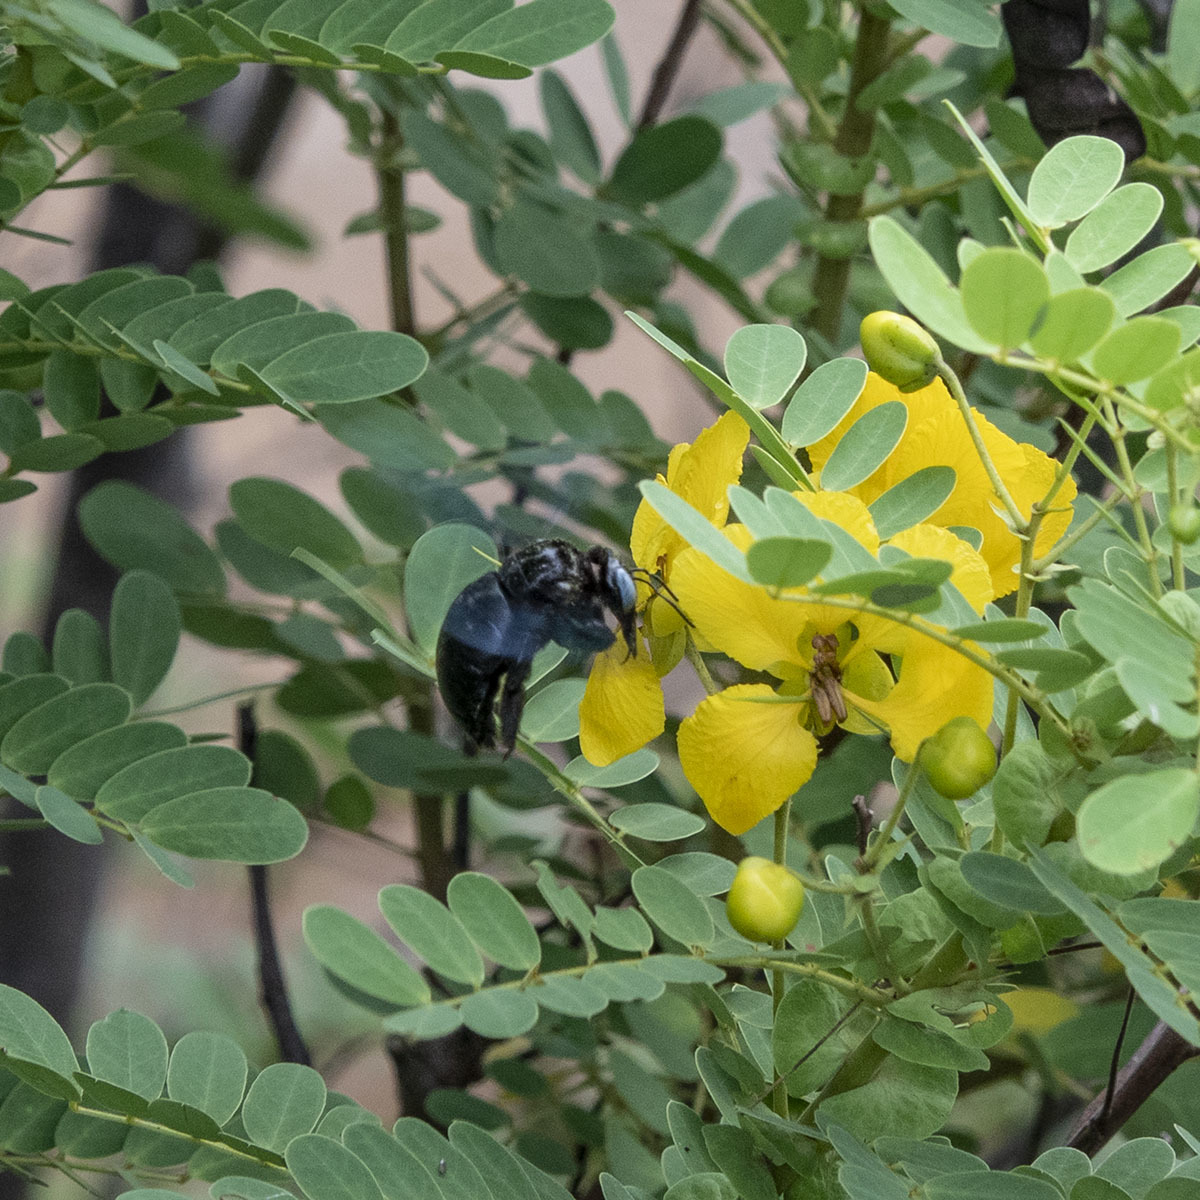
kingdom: Animalia
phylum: Arthropoda
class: Insecta
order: Hymenoptera
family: Apidae
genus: Xylocopa
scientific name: Xylocopa tenuiscapa
